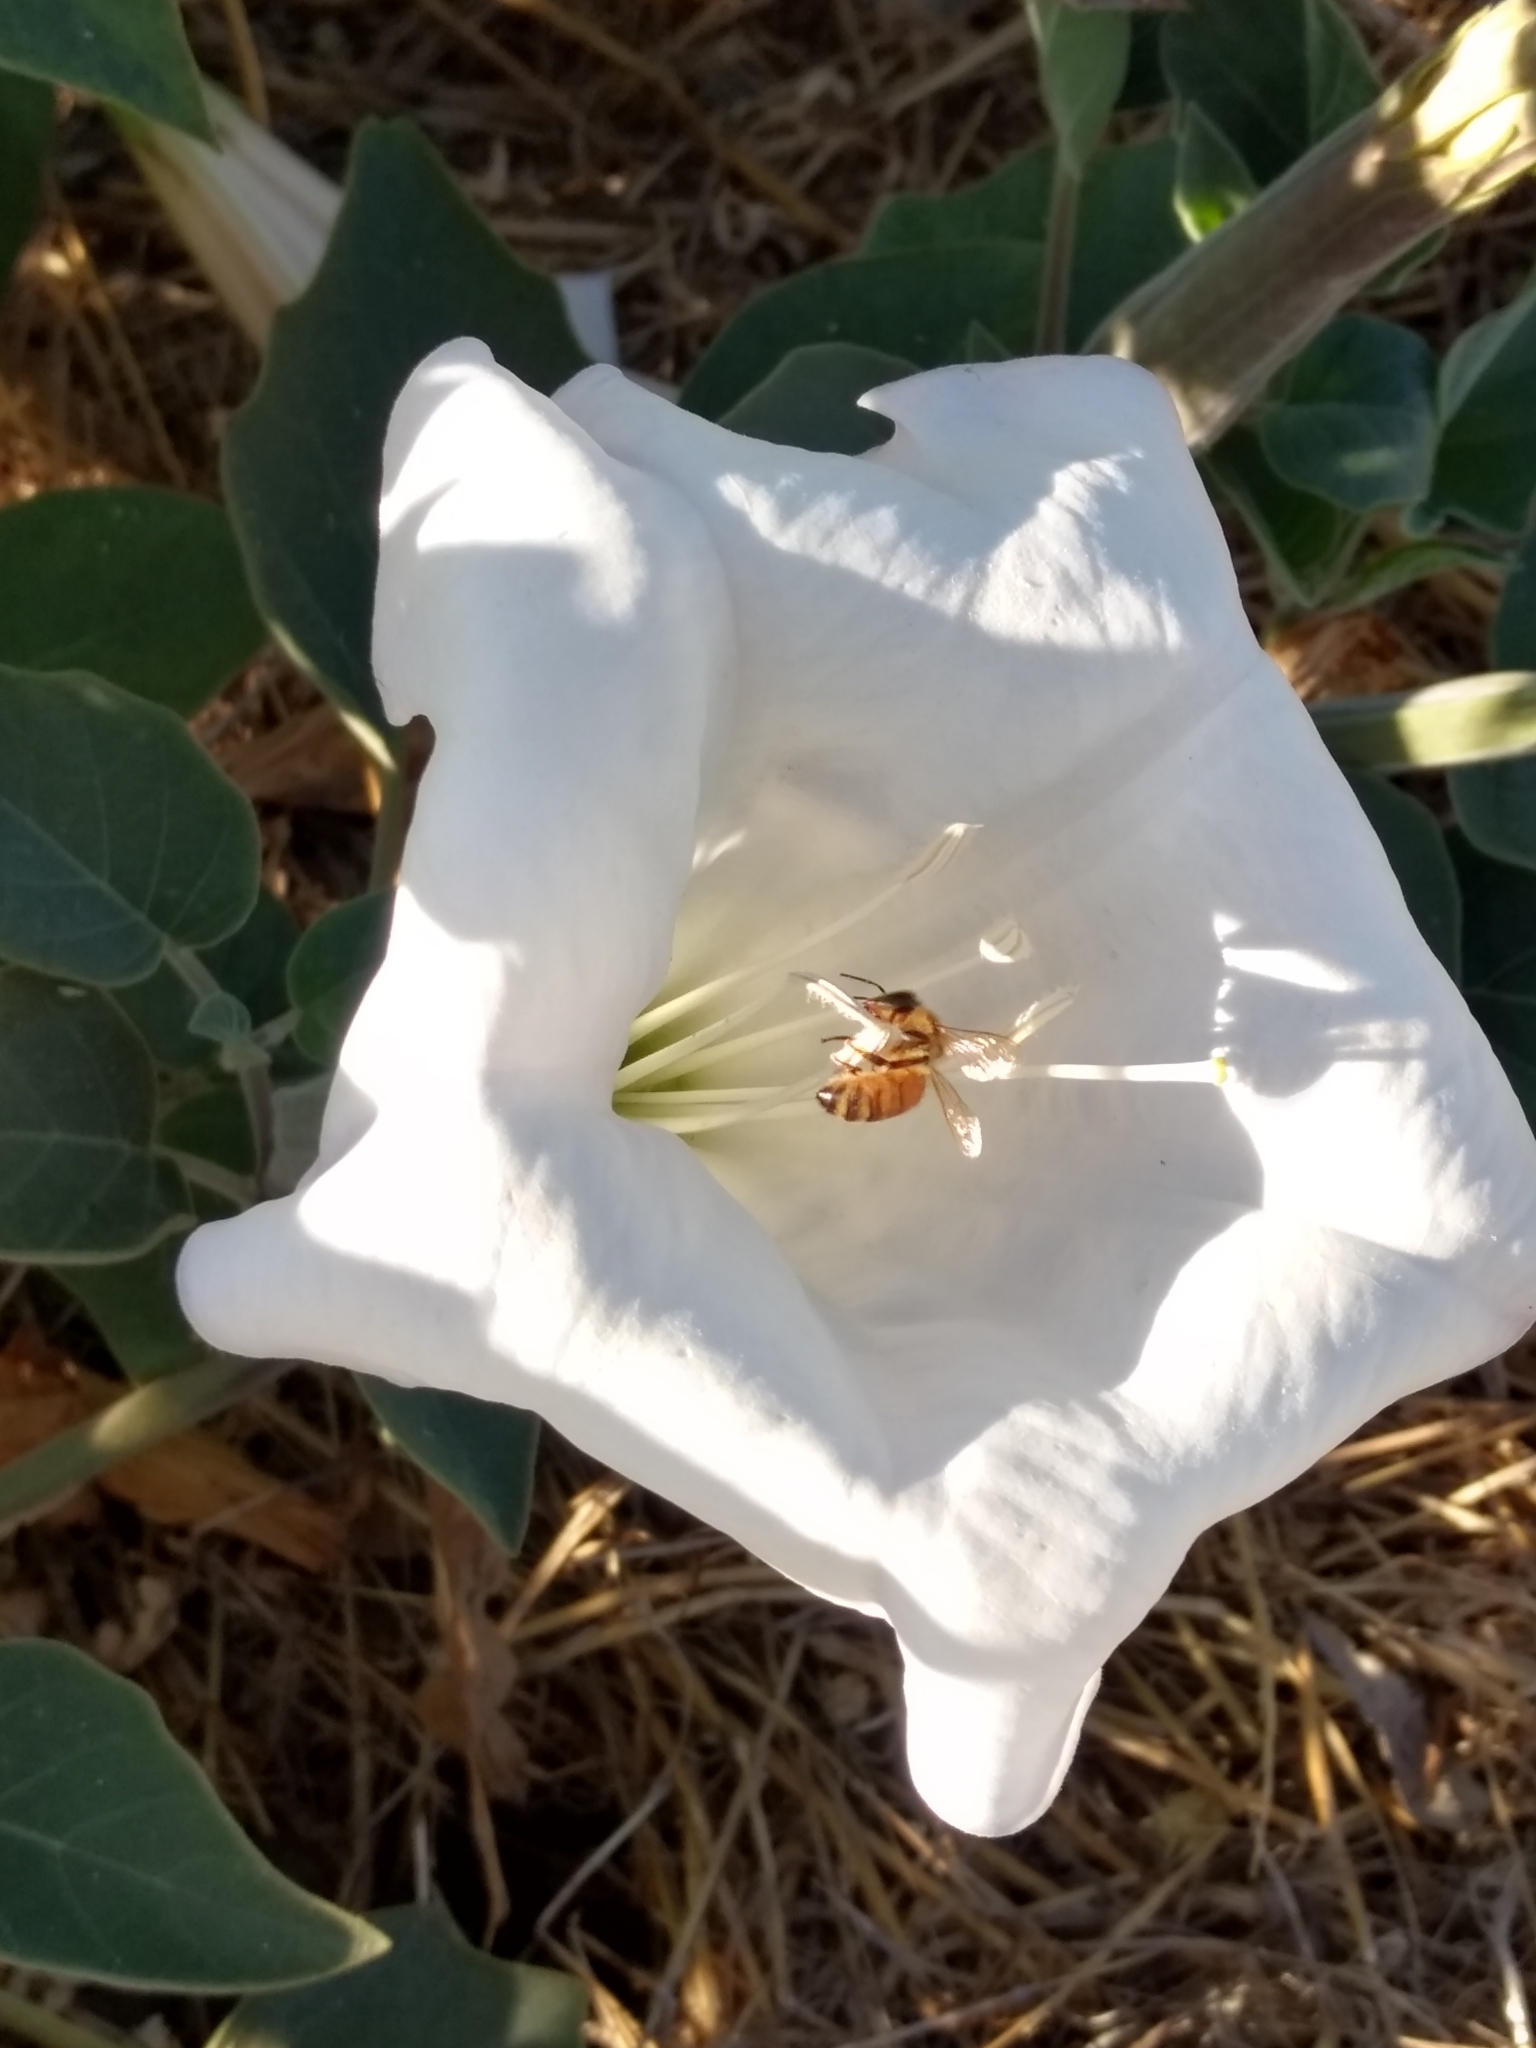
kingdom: Plantae
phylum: Tracheophyta
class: Magnoliopsida
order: Solanales
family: Solanaceae
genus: Datura
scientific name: Datura wrightii
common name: Sacred thorn-apple
